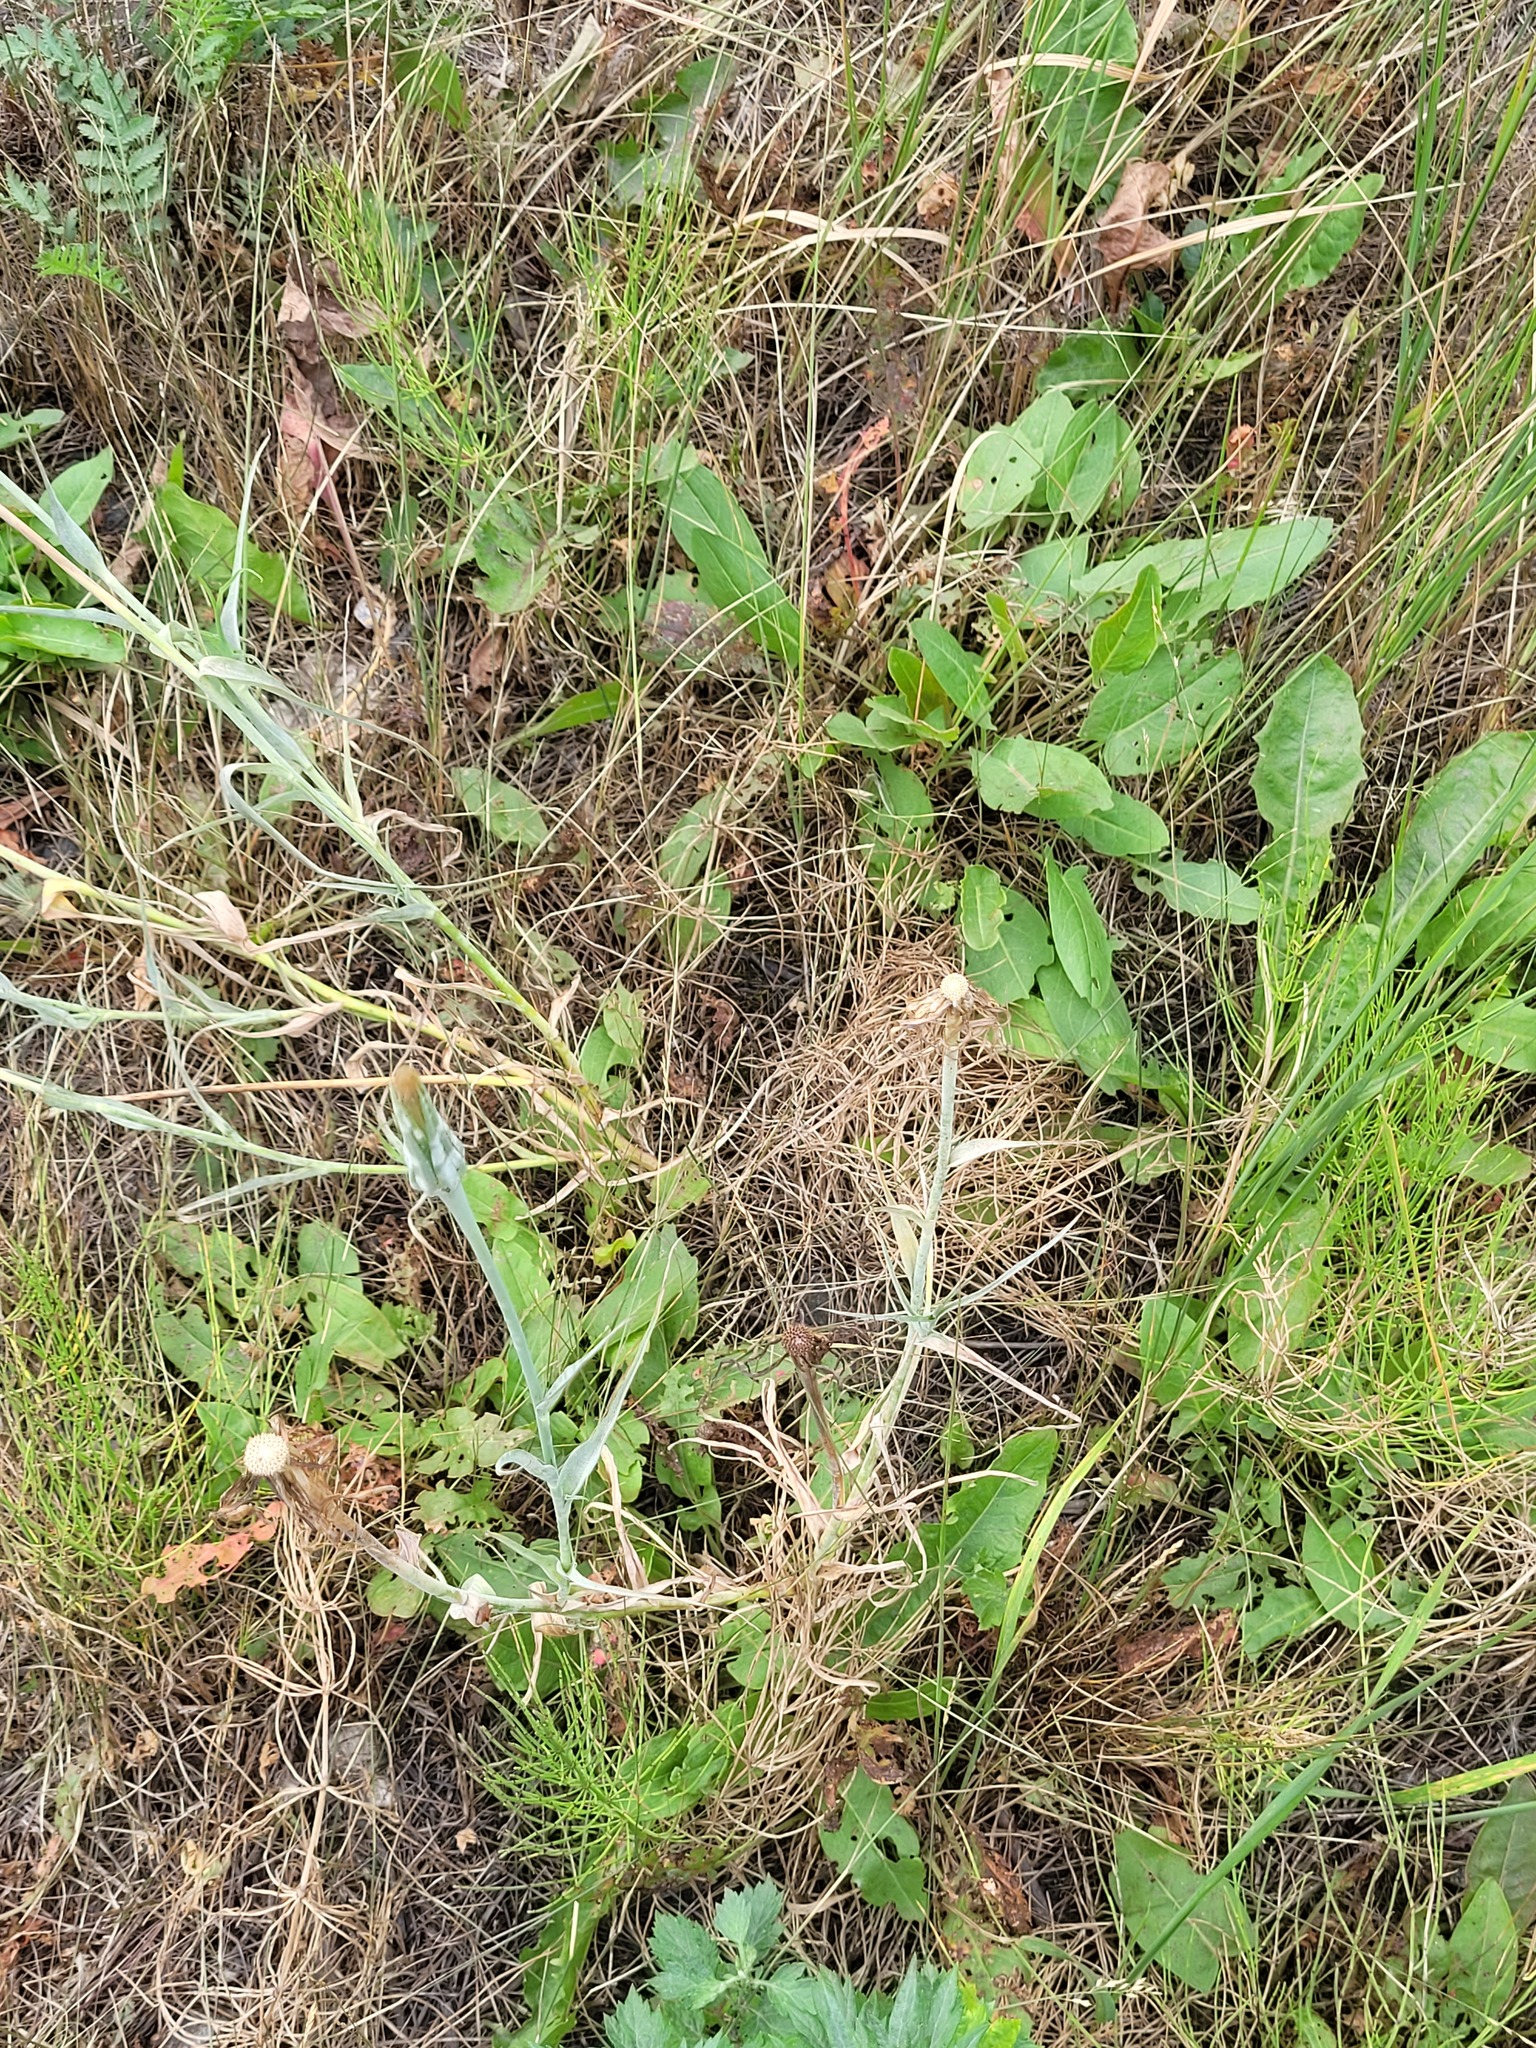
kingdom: Plantae
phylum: Tracheophyta
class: Magnoliopsida
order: Asterales
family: Asteraceae
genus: Tragopogon
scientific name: Tragopogon dubius
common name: Yellow salsify
